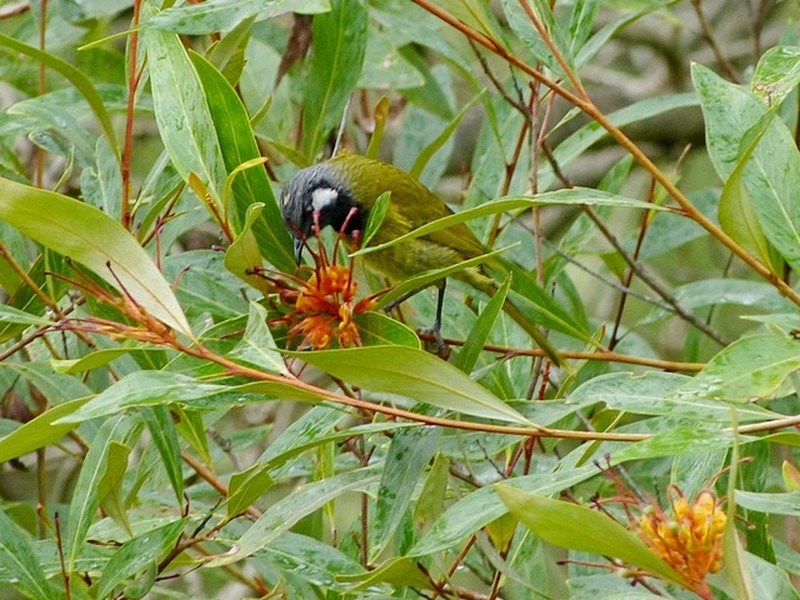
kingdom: Animalia
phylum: Chordata
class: Aves
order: Passeriformes
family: Meliphagidae
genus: Nesoptilotis
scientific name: Nesoptilotis leucotis
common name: White-eared honeyeater
